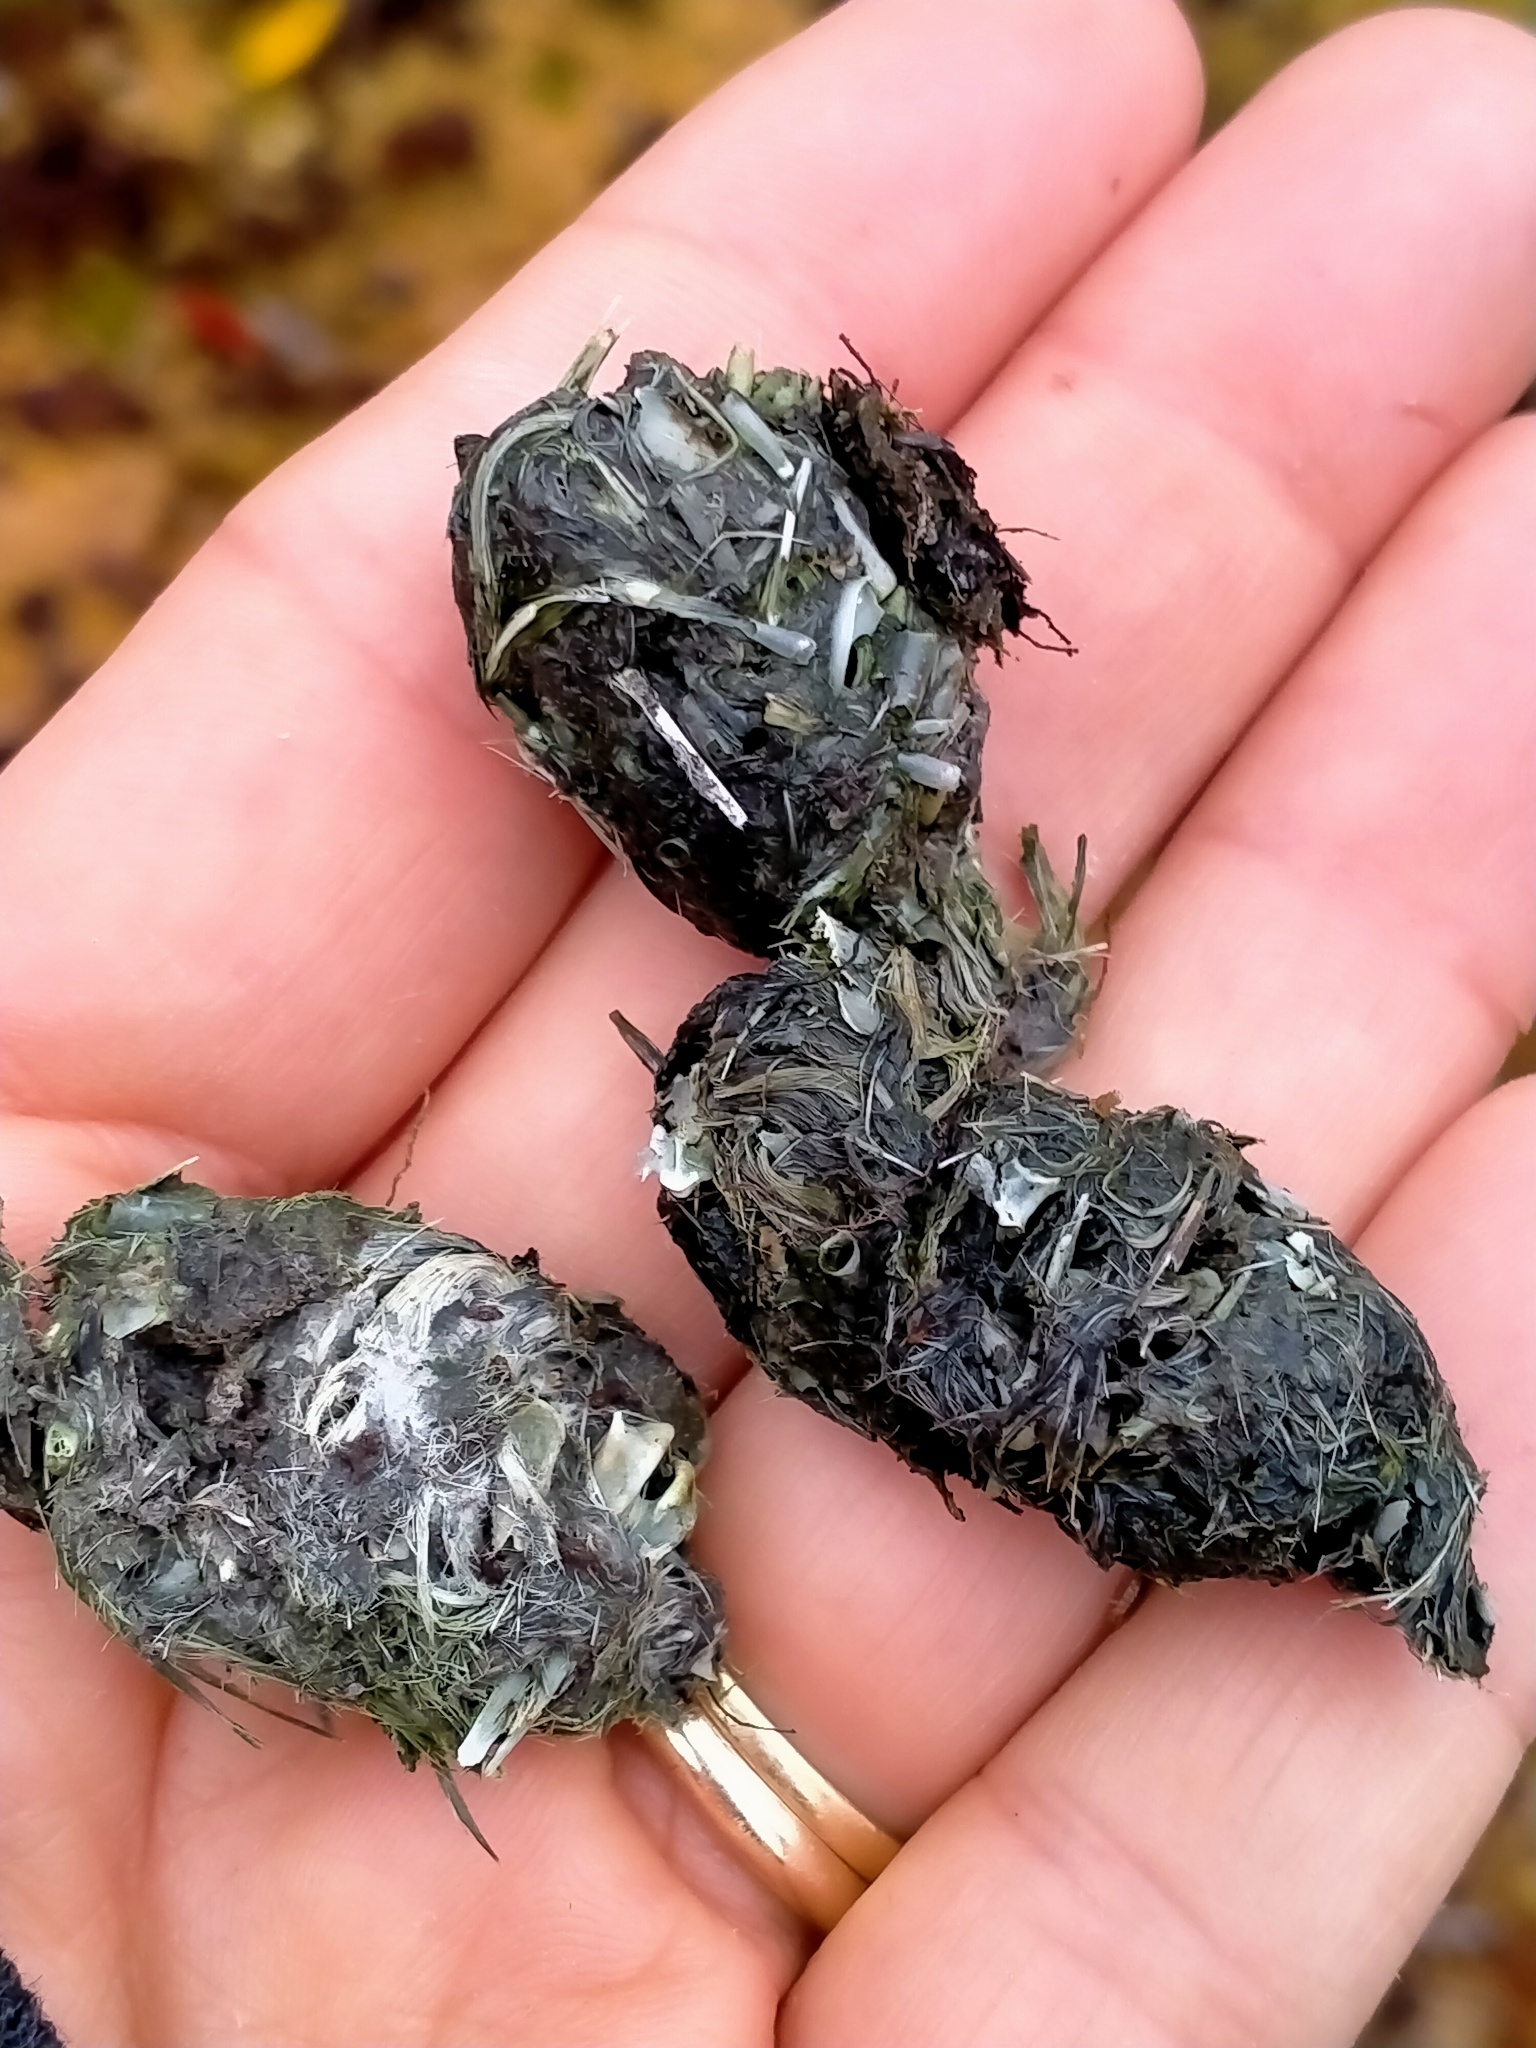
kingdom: Animalia
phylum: Chordata
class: Mammalia
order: Carnivora
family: Felidae
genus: Felis
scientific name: Felis catus
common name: Domestic cat
